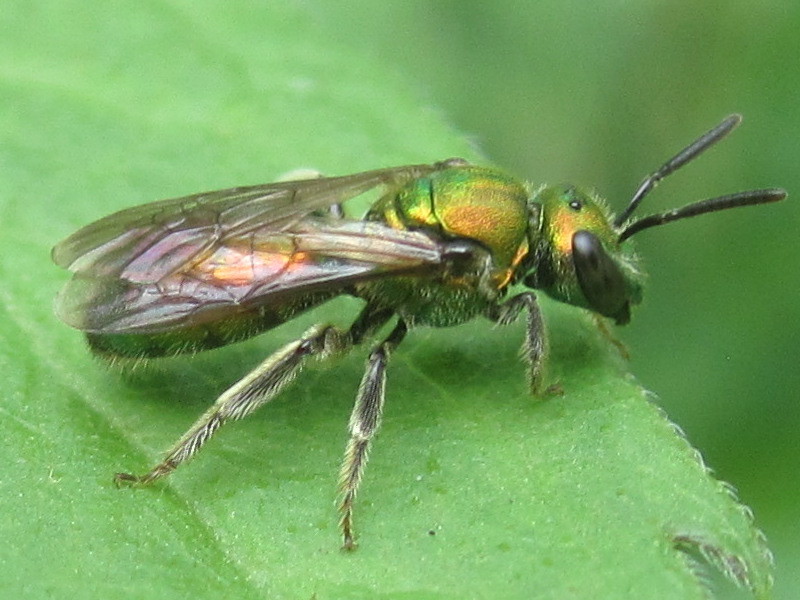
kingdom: Animalia
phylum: Arthropoda
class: Insecta
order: Hymenoptera
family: Halictidae
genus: Augochlora
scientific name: Augochlora pura
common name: Pure green sweat bee
